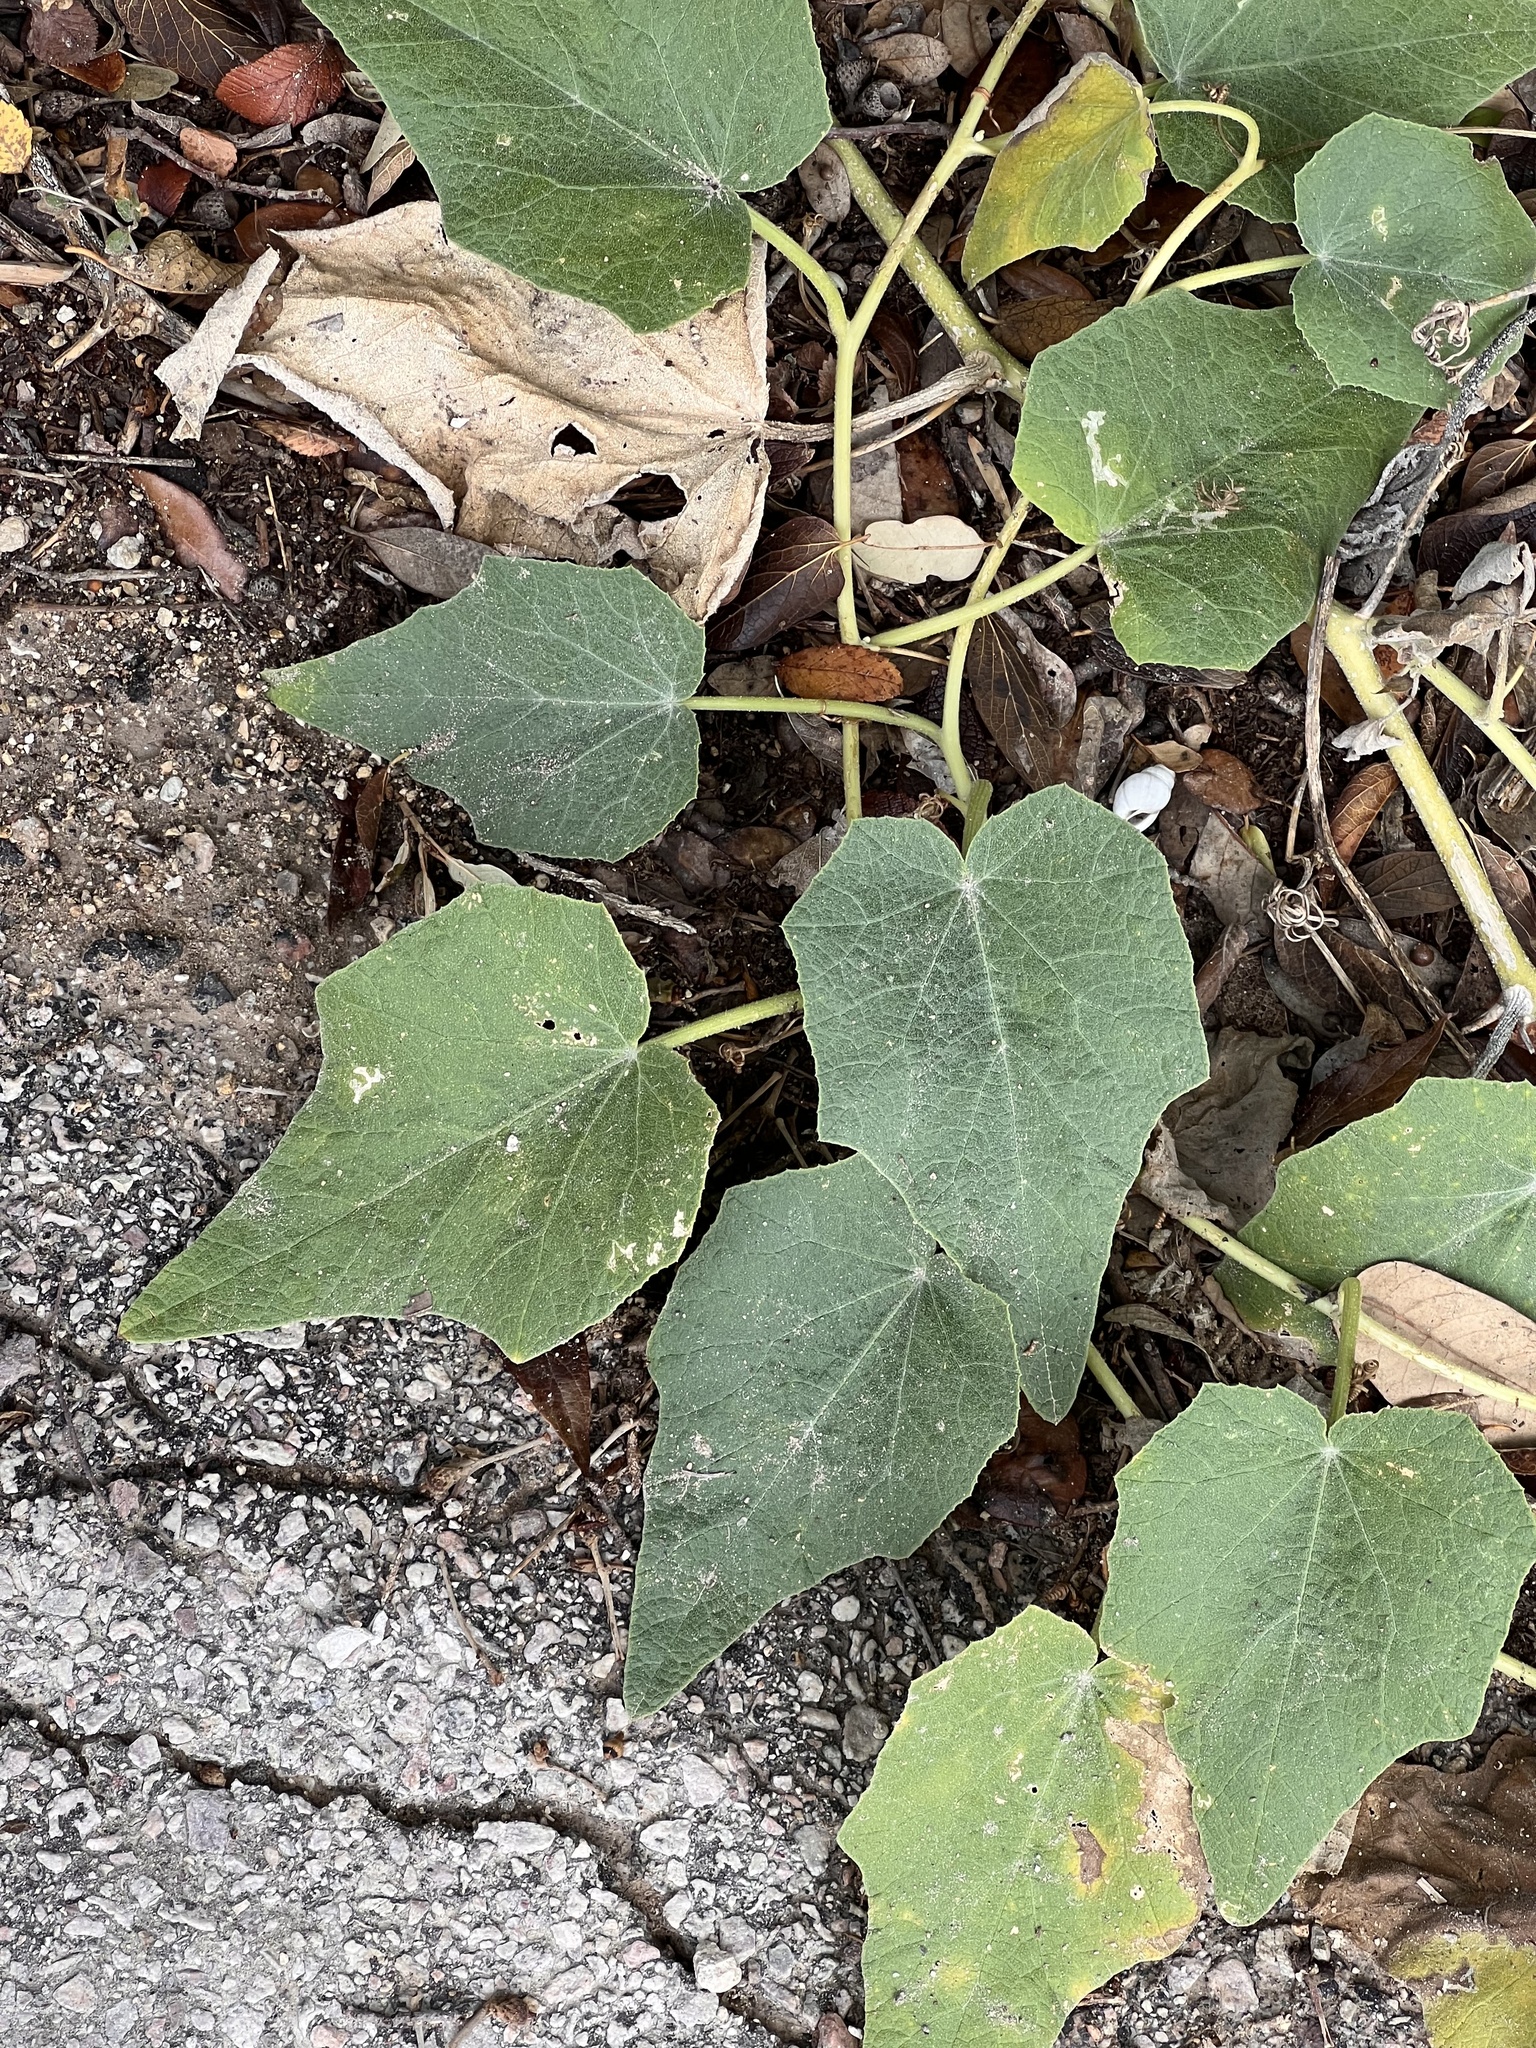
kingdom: Plantae
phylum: Tracheophyta
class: Magnoliopsida
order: Cucurbitales
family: Cucurbitaceae
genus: Cucurbita
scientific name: Cucurbita foetidissima
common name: Buffalo gourd
